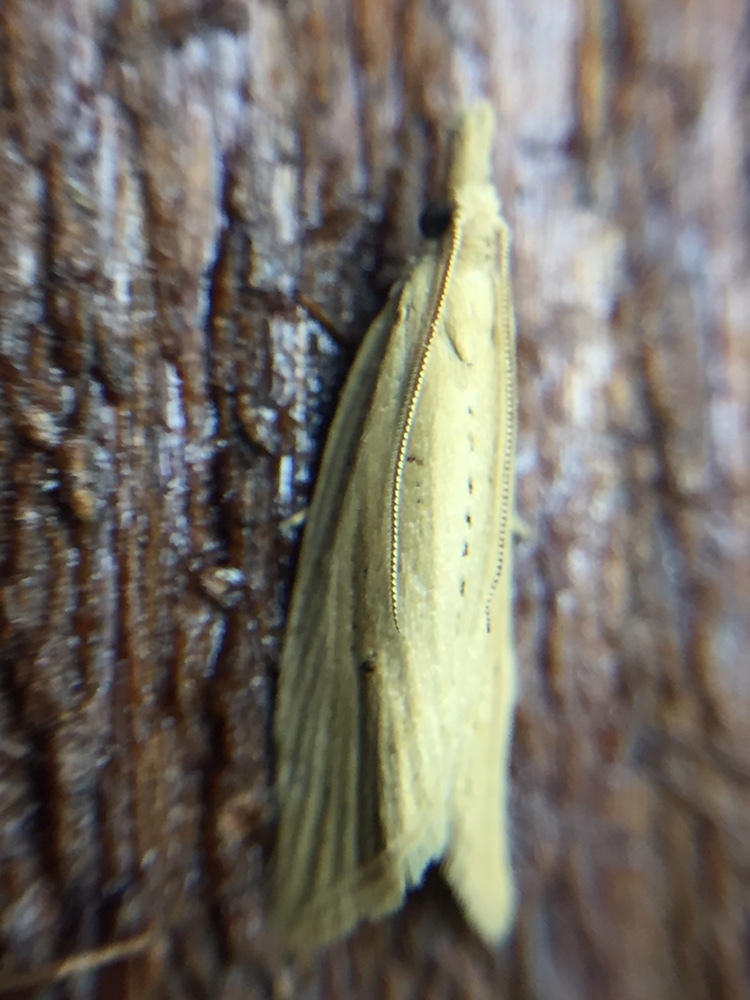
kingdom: Animalia
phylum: Arthropoda
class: Insecta
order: Lepidoptera
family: Tortricidae
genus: Bactra
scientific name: Bactra noteraula
